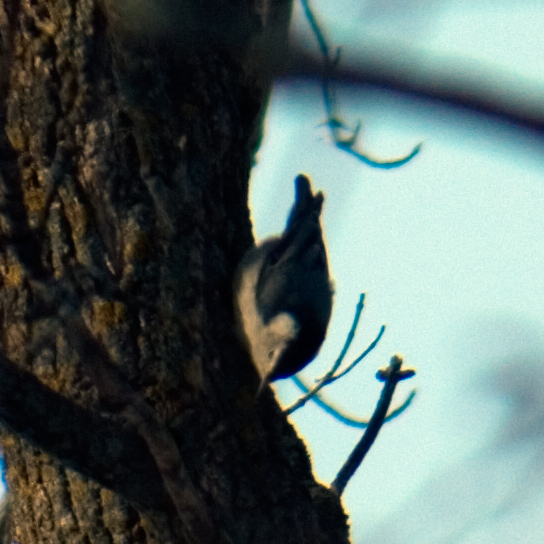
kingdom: Animalia
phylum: Chordata
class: Aves
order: Passeriformes
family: Sittidae
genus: Sitta
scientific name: Sitta carolinensis
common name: White-breasted nuthatch
